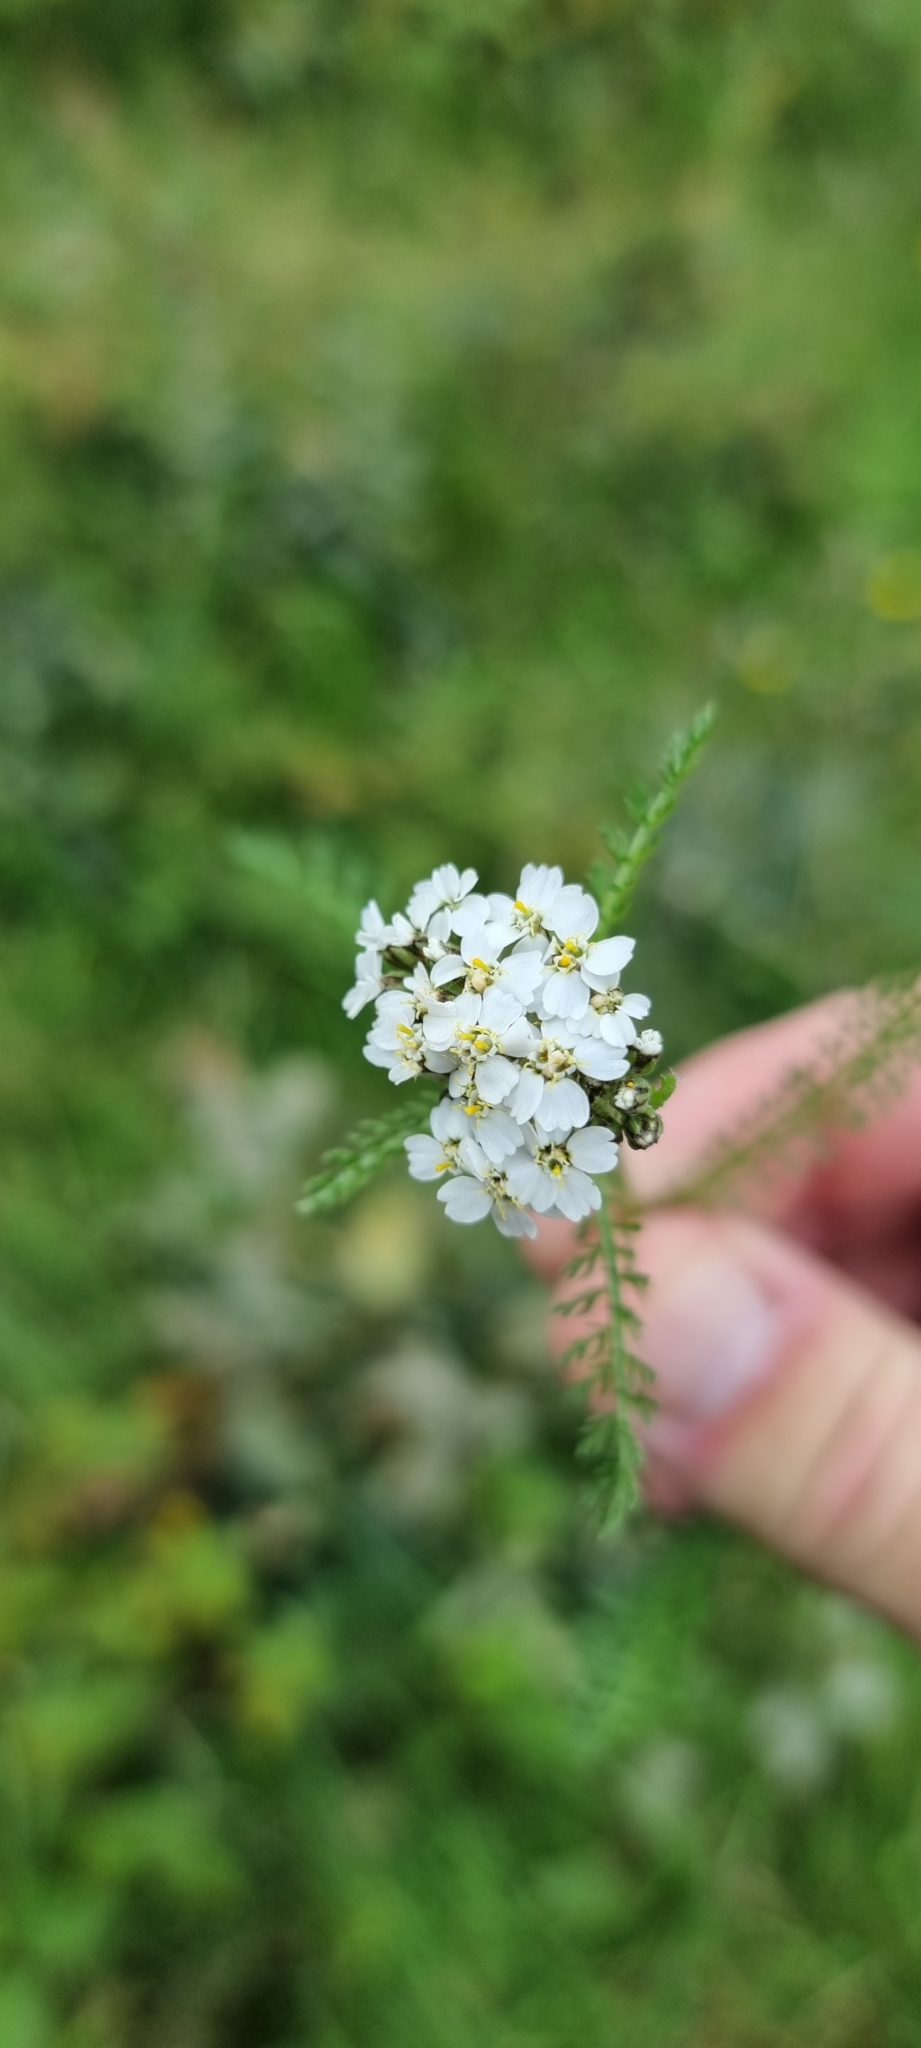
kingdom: Plantae
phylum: Tracheophyta
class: Magnoliopsida
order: Asterales
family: Asteraceae
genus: Achillea
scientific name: Achillea millefolium
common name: Yarrow
